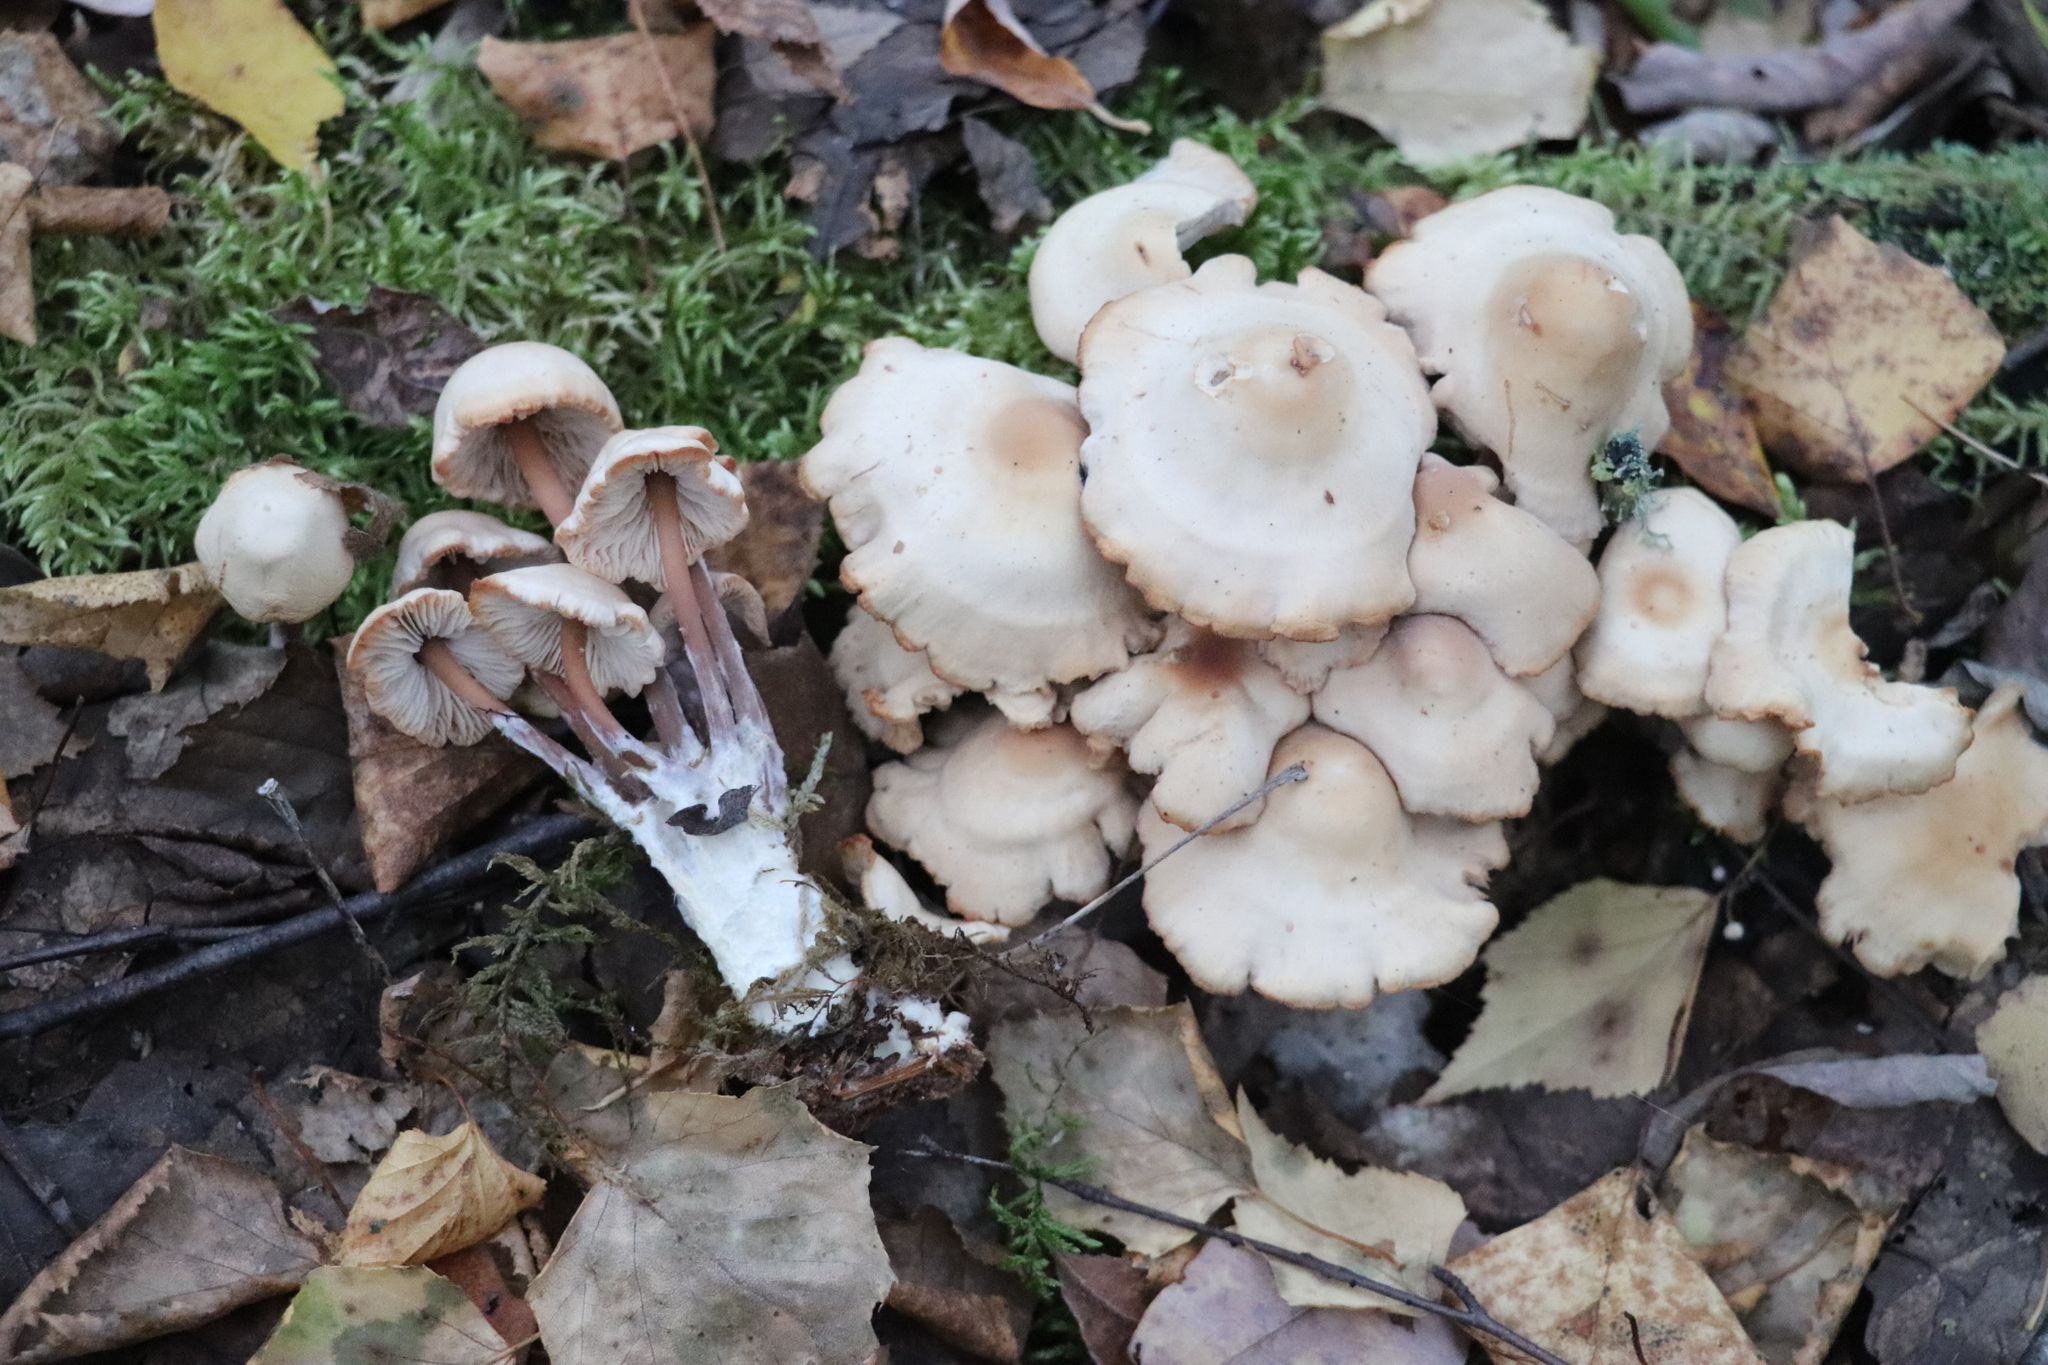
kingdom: Fungi
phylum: Basidiomycota
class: Agaricomycetes
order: Agaricales
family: Omphalotaceae
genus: Collybiopsis
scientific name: Collybiopsis confluens
